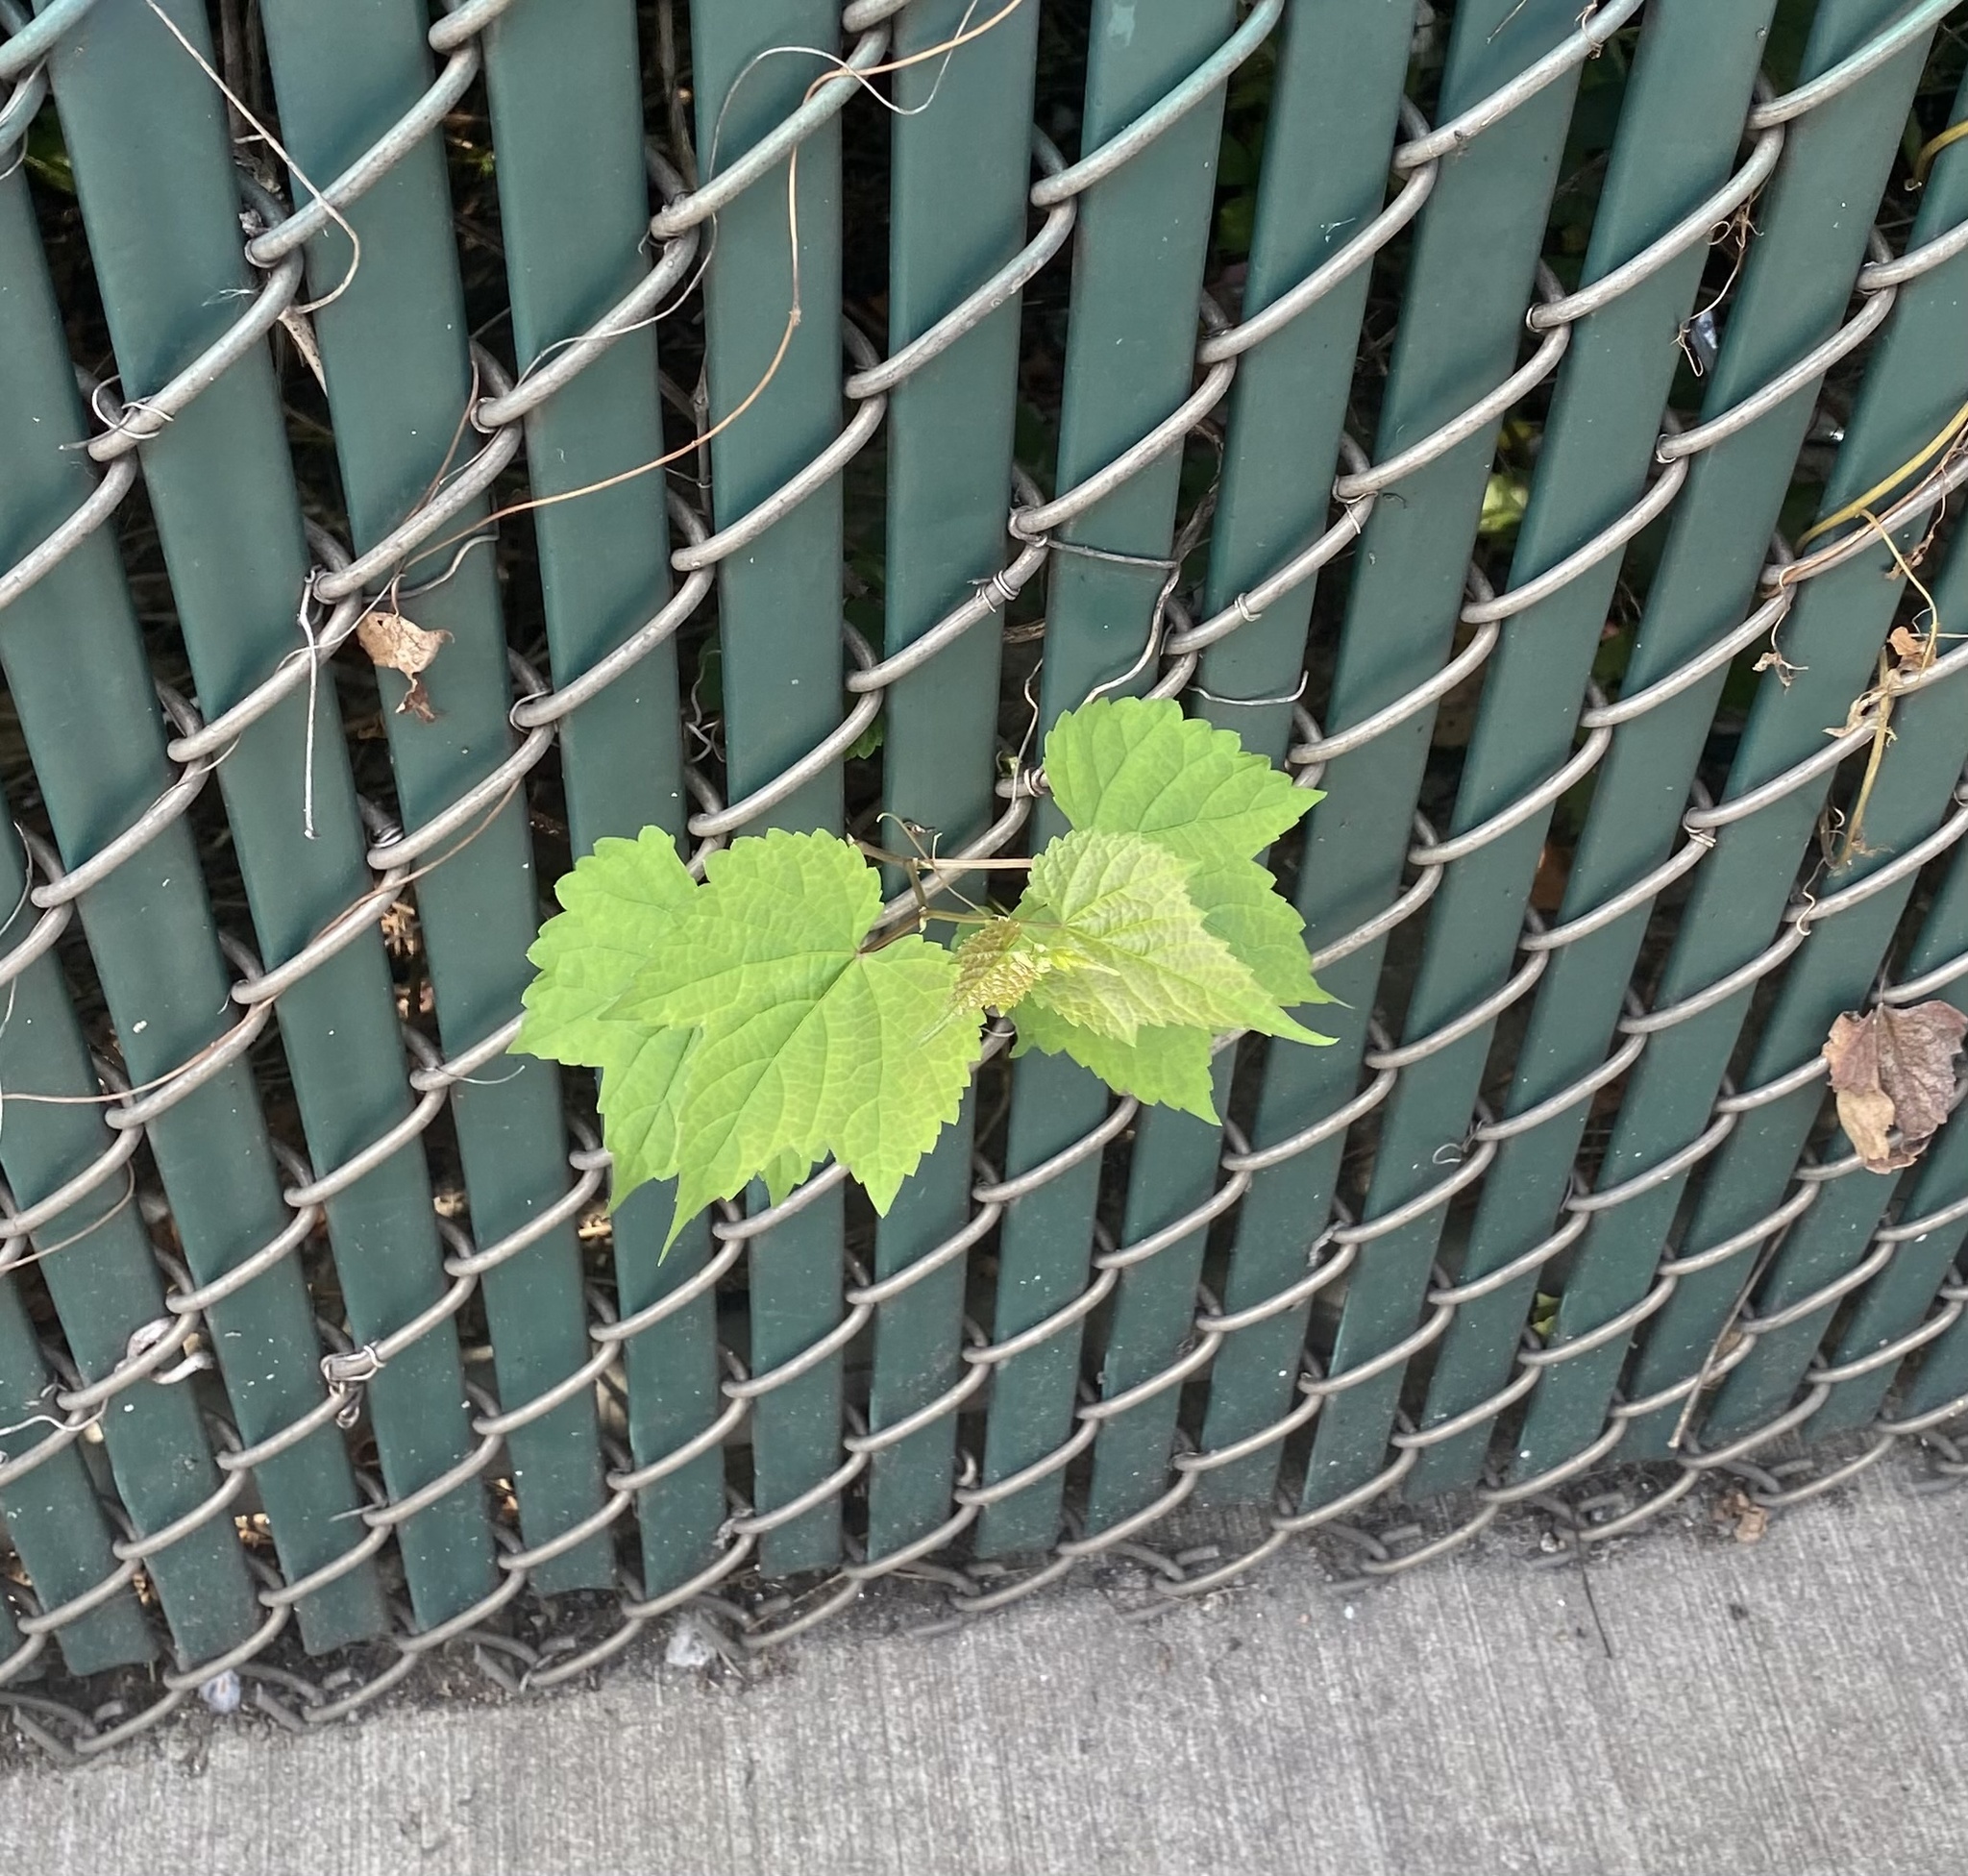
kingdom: Plantae
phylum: Tracheophyta
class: Magnoliopsida
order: Vitales
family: Vitaceae
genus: Ampelopsis
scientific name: Ampelopsis glandulosa
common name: Amur peppervine
